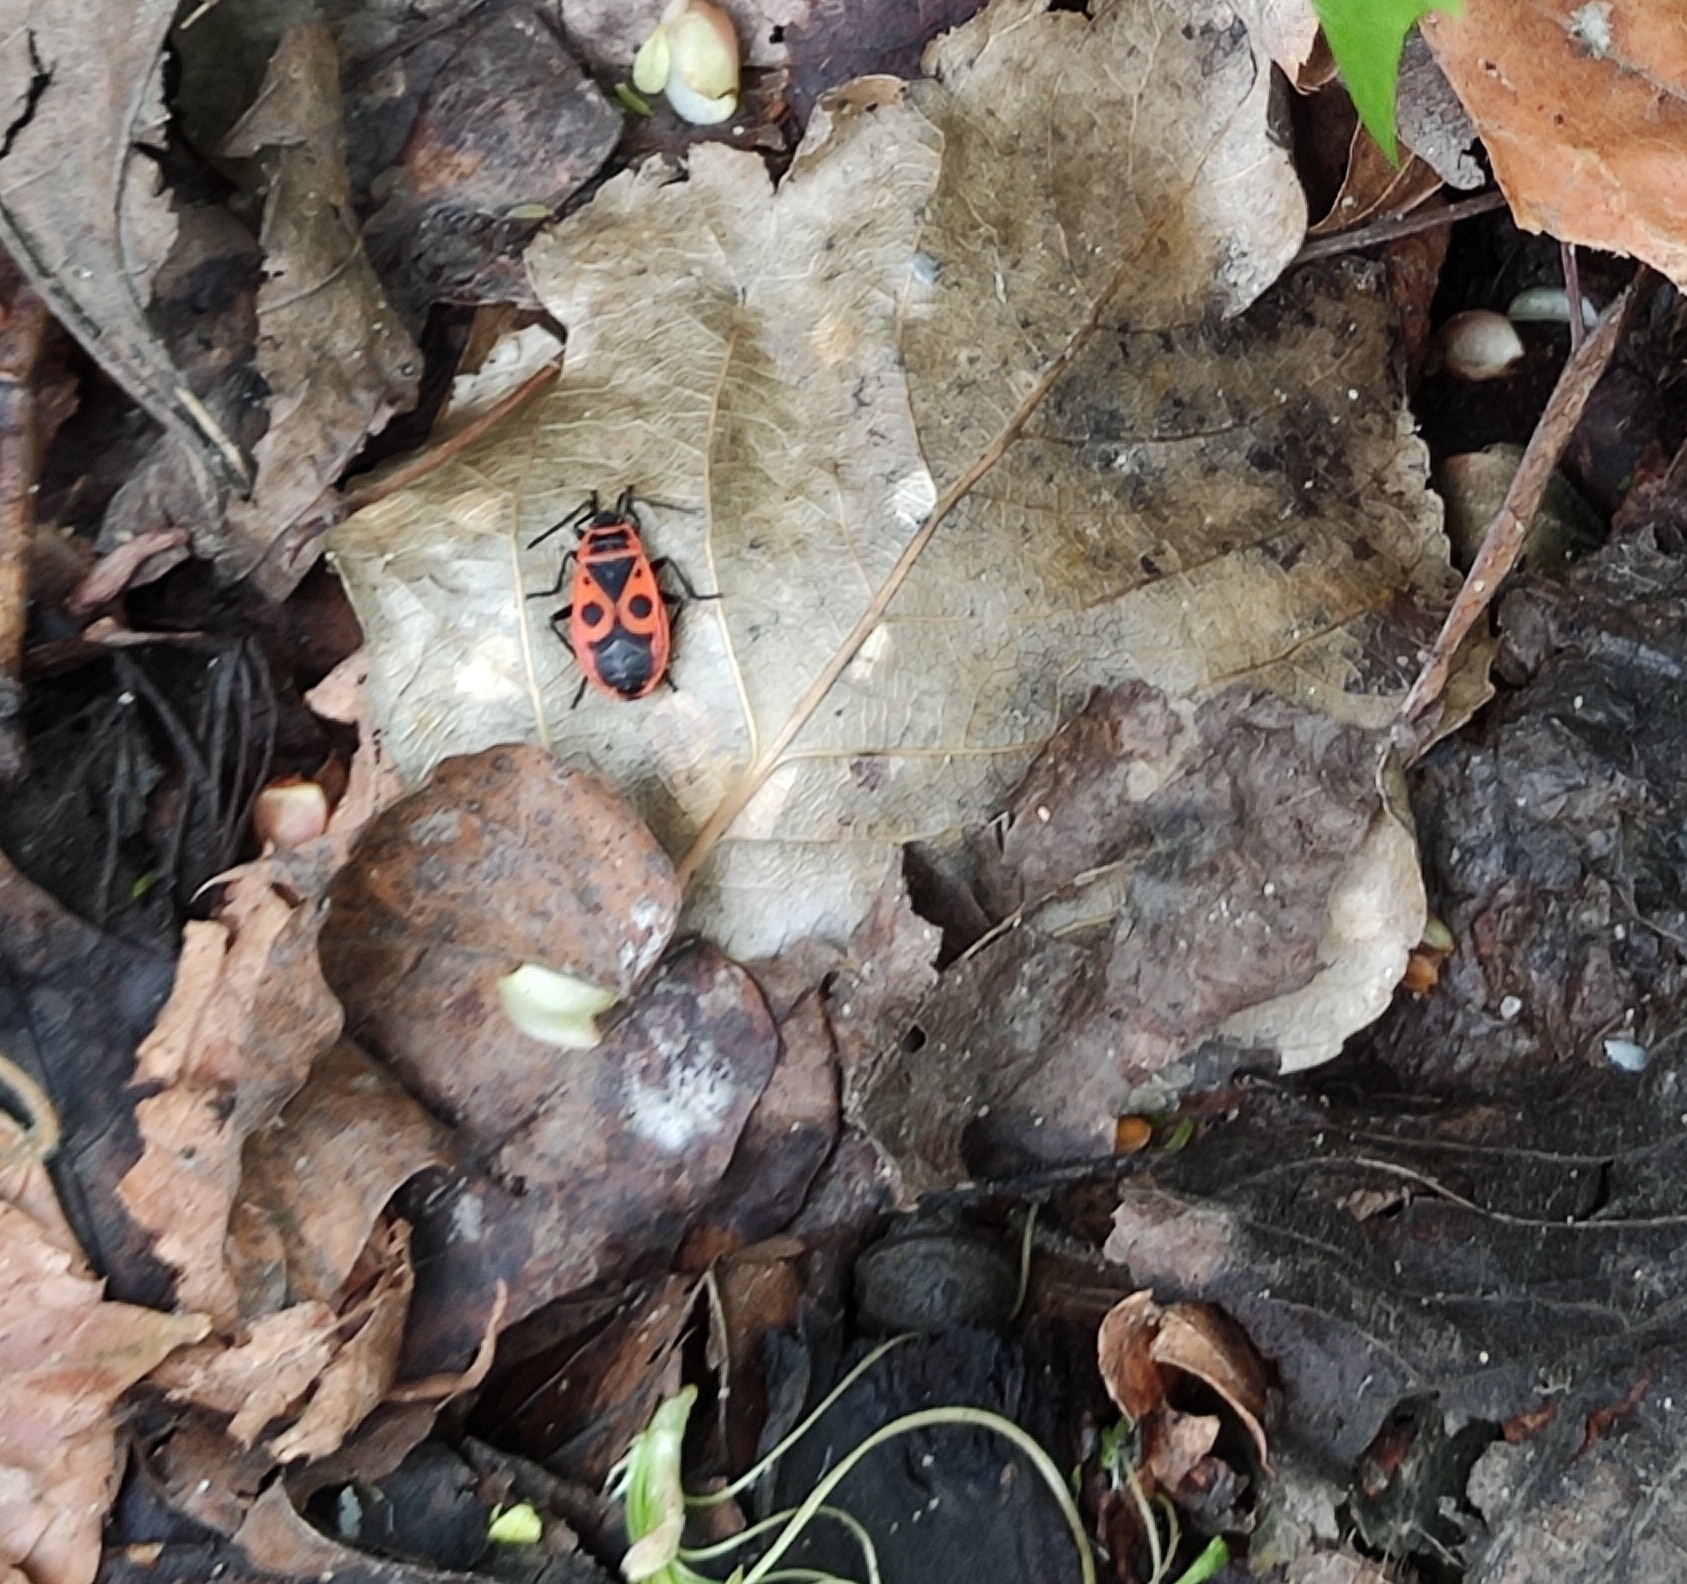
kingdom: Animalia
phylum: Arthropoda
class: Insecta
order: Hemiptera
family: Pyrrhocoridae
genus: Pyrrhocoris
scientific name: Pyrrhocoris apterus
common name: Firebug
